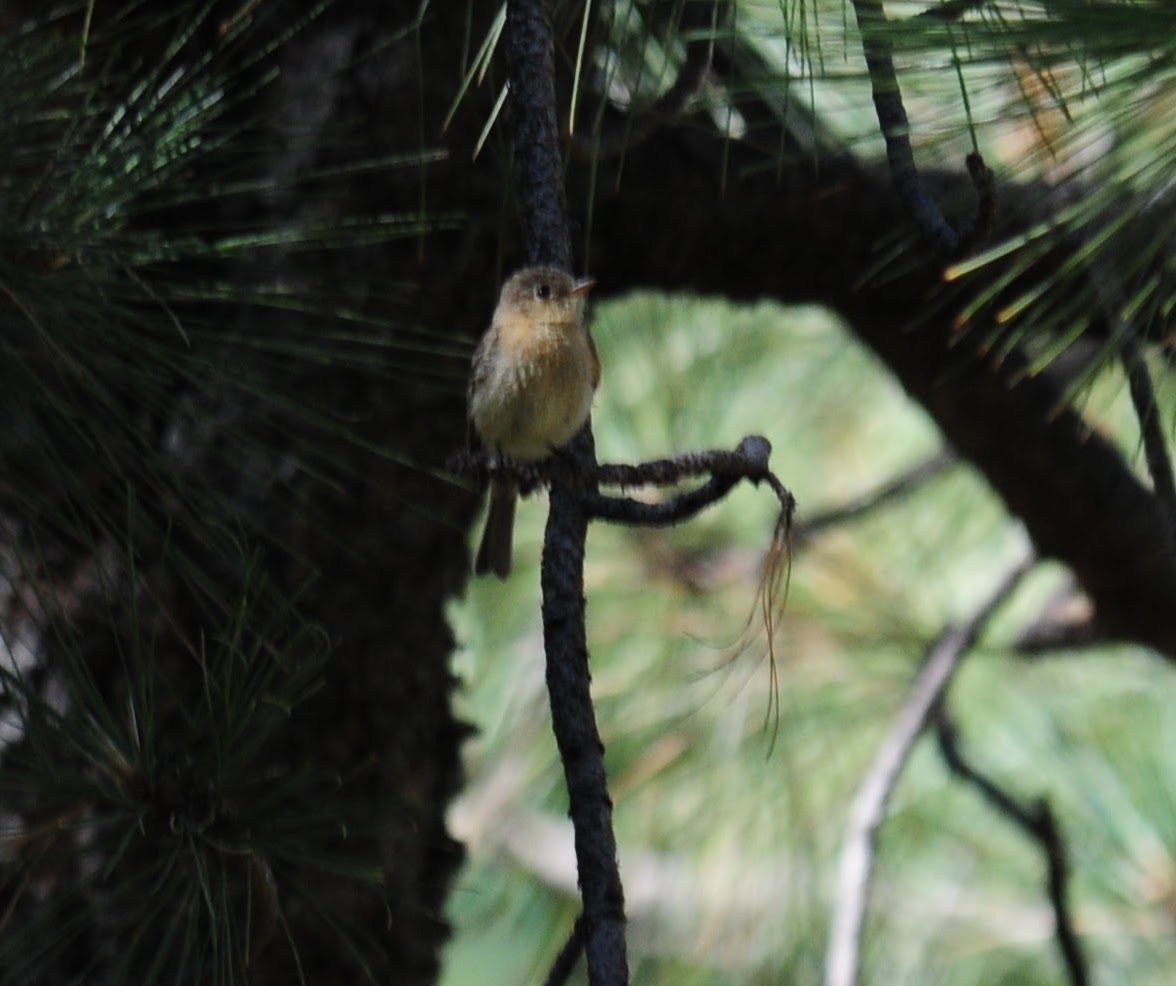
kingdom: Animalia
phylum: Chordata
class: Aves
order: Passeriformes
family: Tyrannidae
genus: Empidonax
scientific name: Empidonax fulvifrons
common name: Buff-breasted flycatcher
